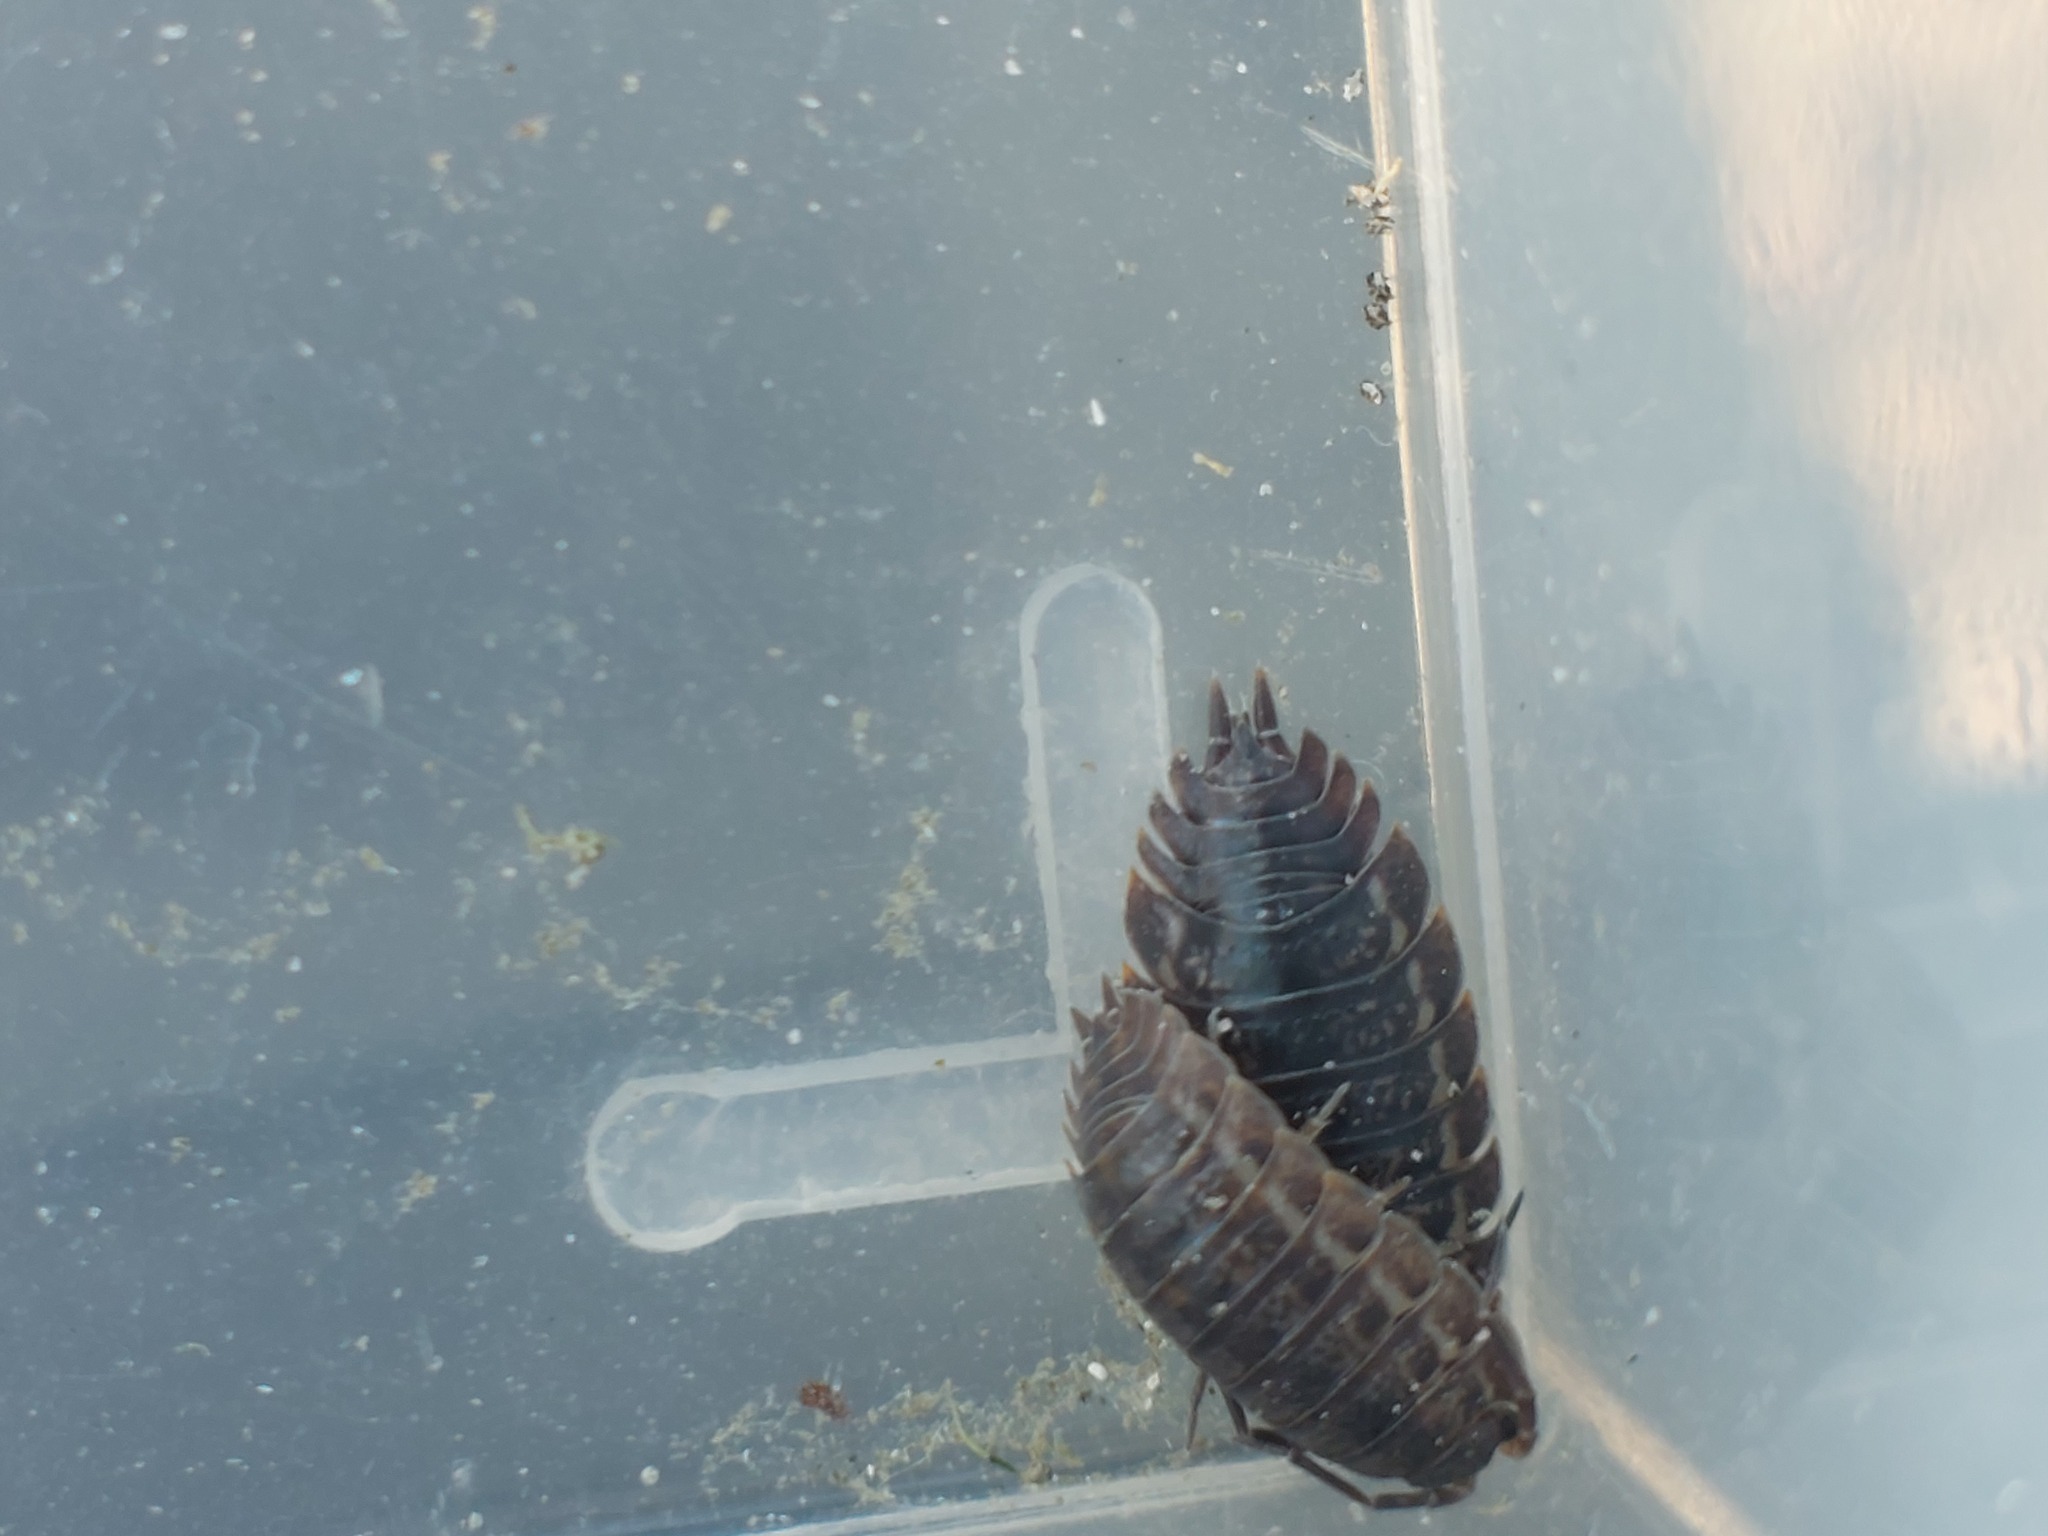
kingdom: Animalia
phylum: Arthropoda
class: Malacostraca
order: Isopoda
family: Trachelipodidae
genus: Trachelipus
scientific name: Trachelipus rathkii
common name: Isopod
